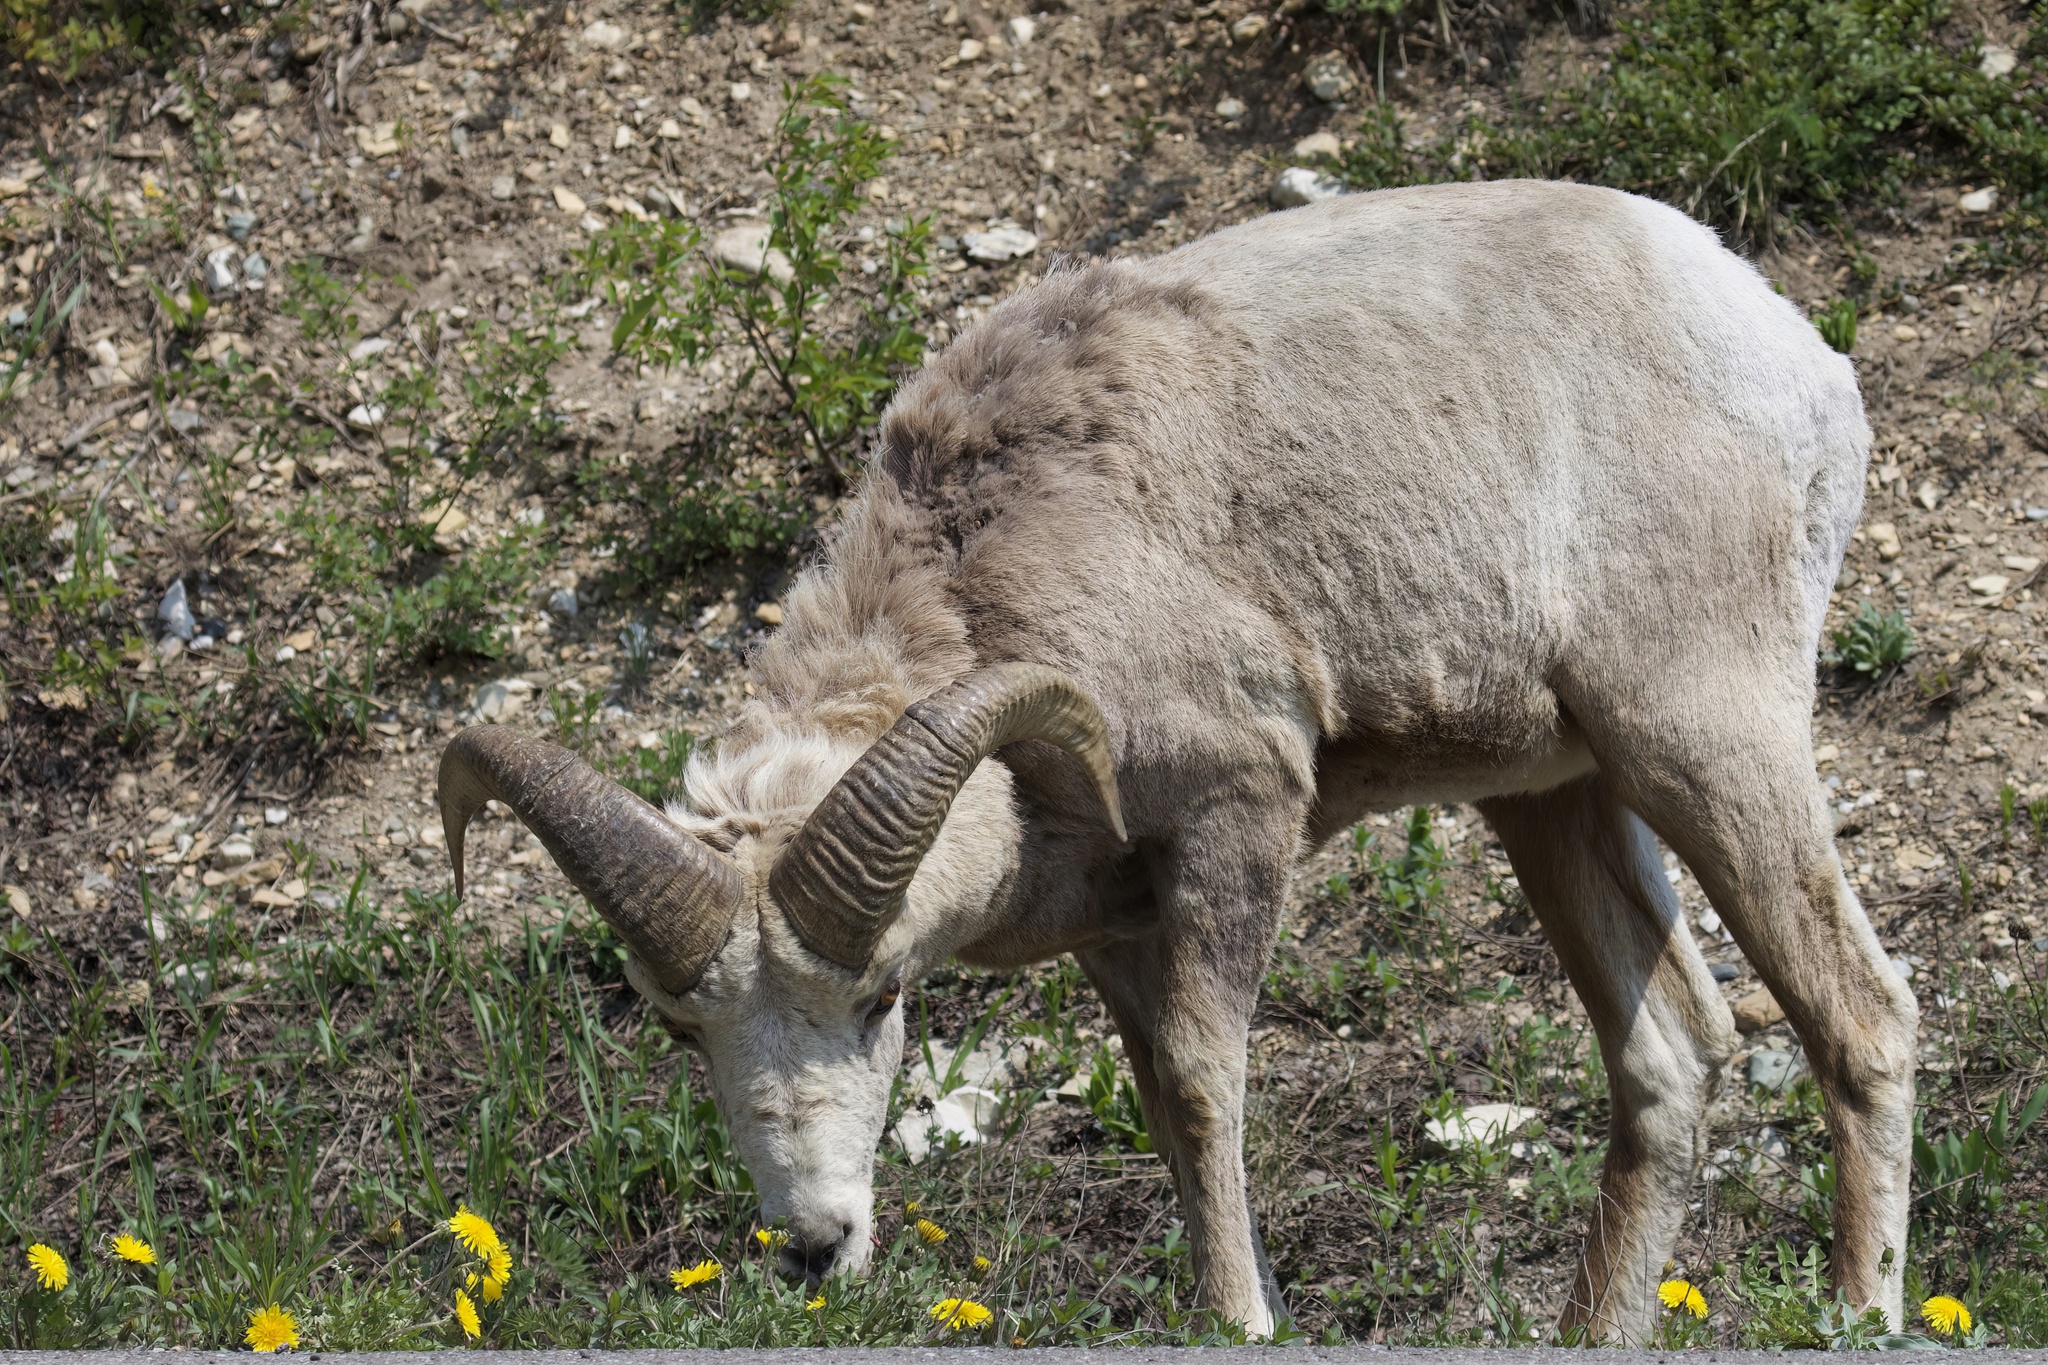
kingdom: Animalia
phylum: Chordata
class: Mammalia
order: Artiodactyla
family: Bovidae
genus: Ovis
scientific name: Ovis canadensis
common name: Bighorn sheep
